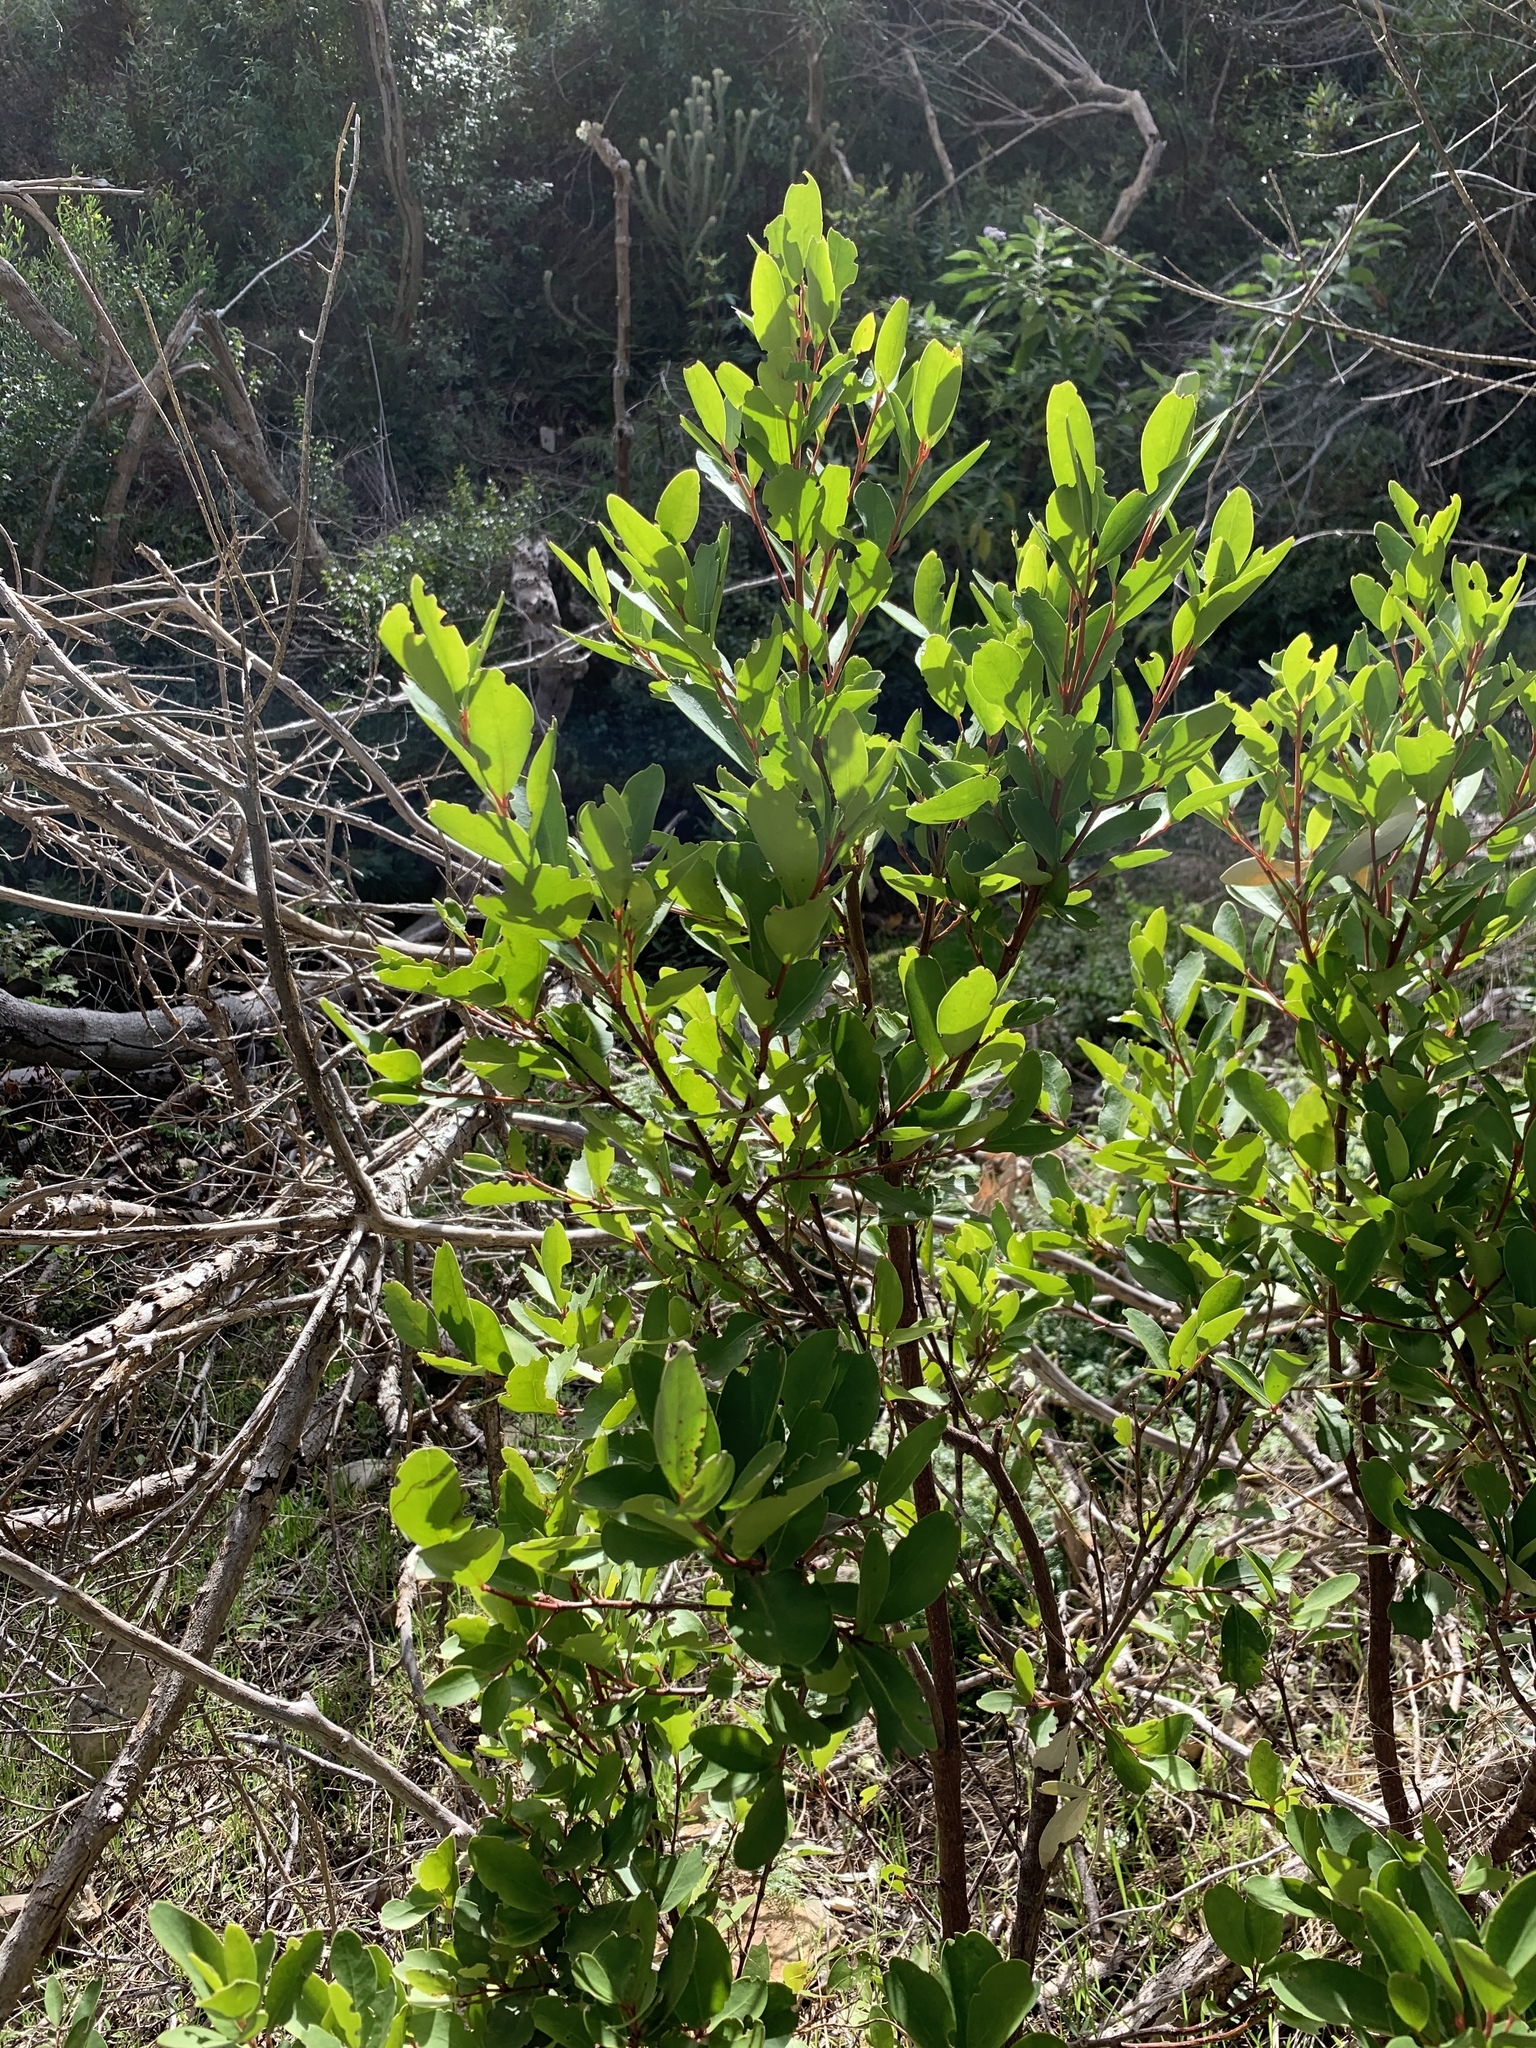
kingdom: Plantae
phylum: Tracheophyta
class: Magnoliopsida
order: Celastrales
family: Celastraceae
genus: Gymnosporia
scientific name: Gymnosporia laurina
